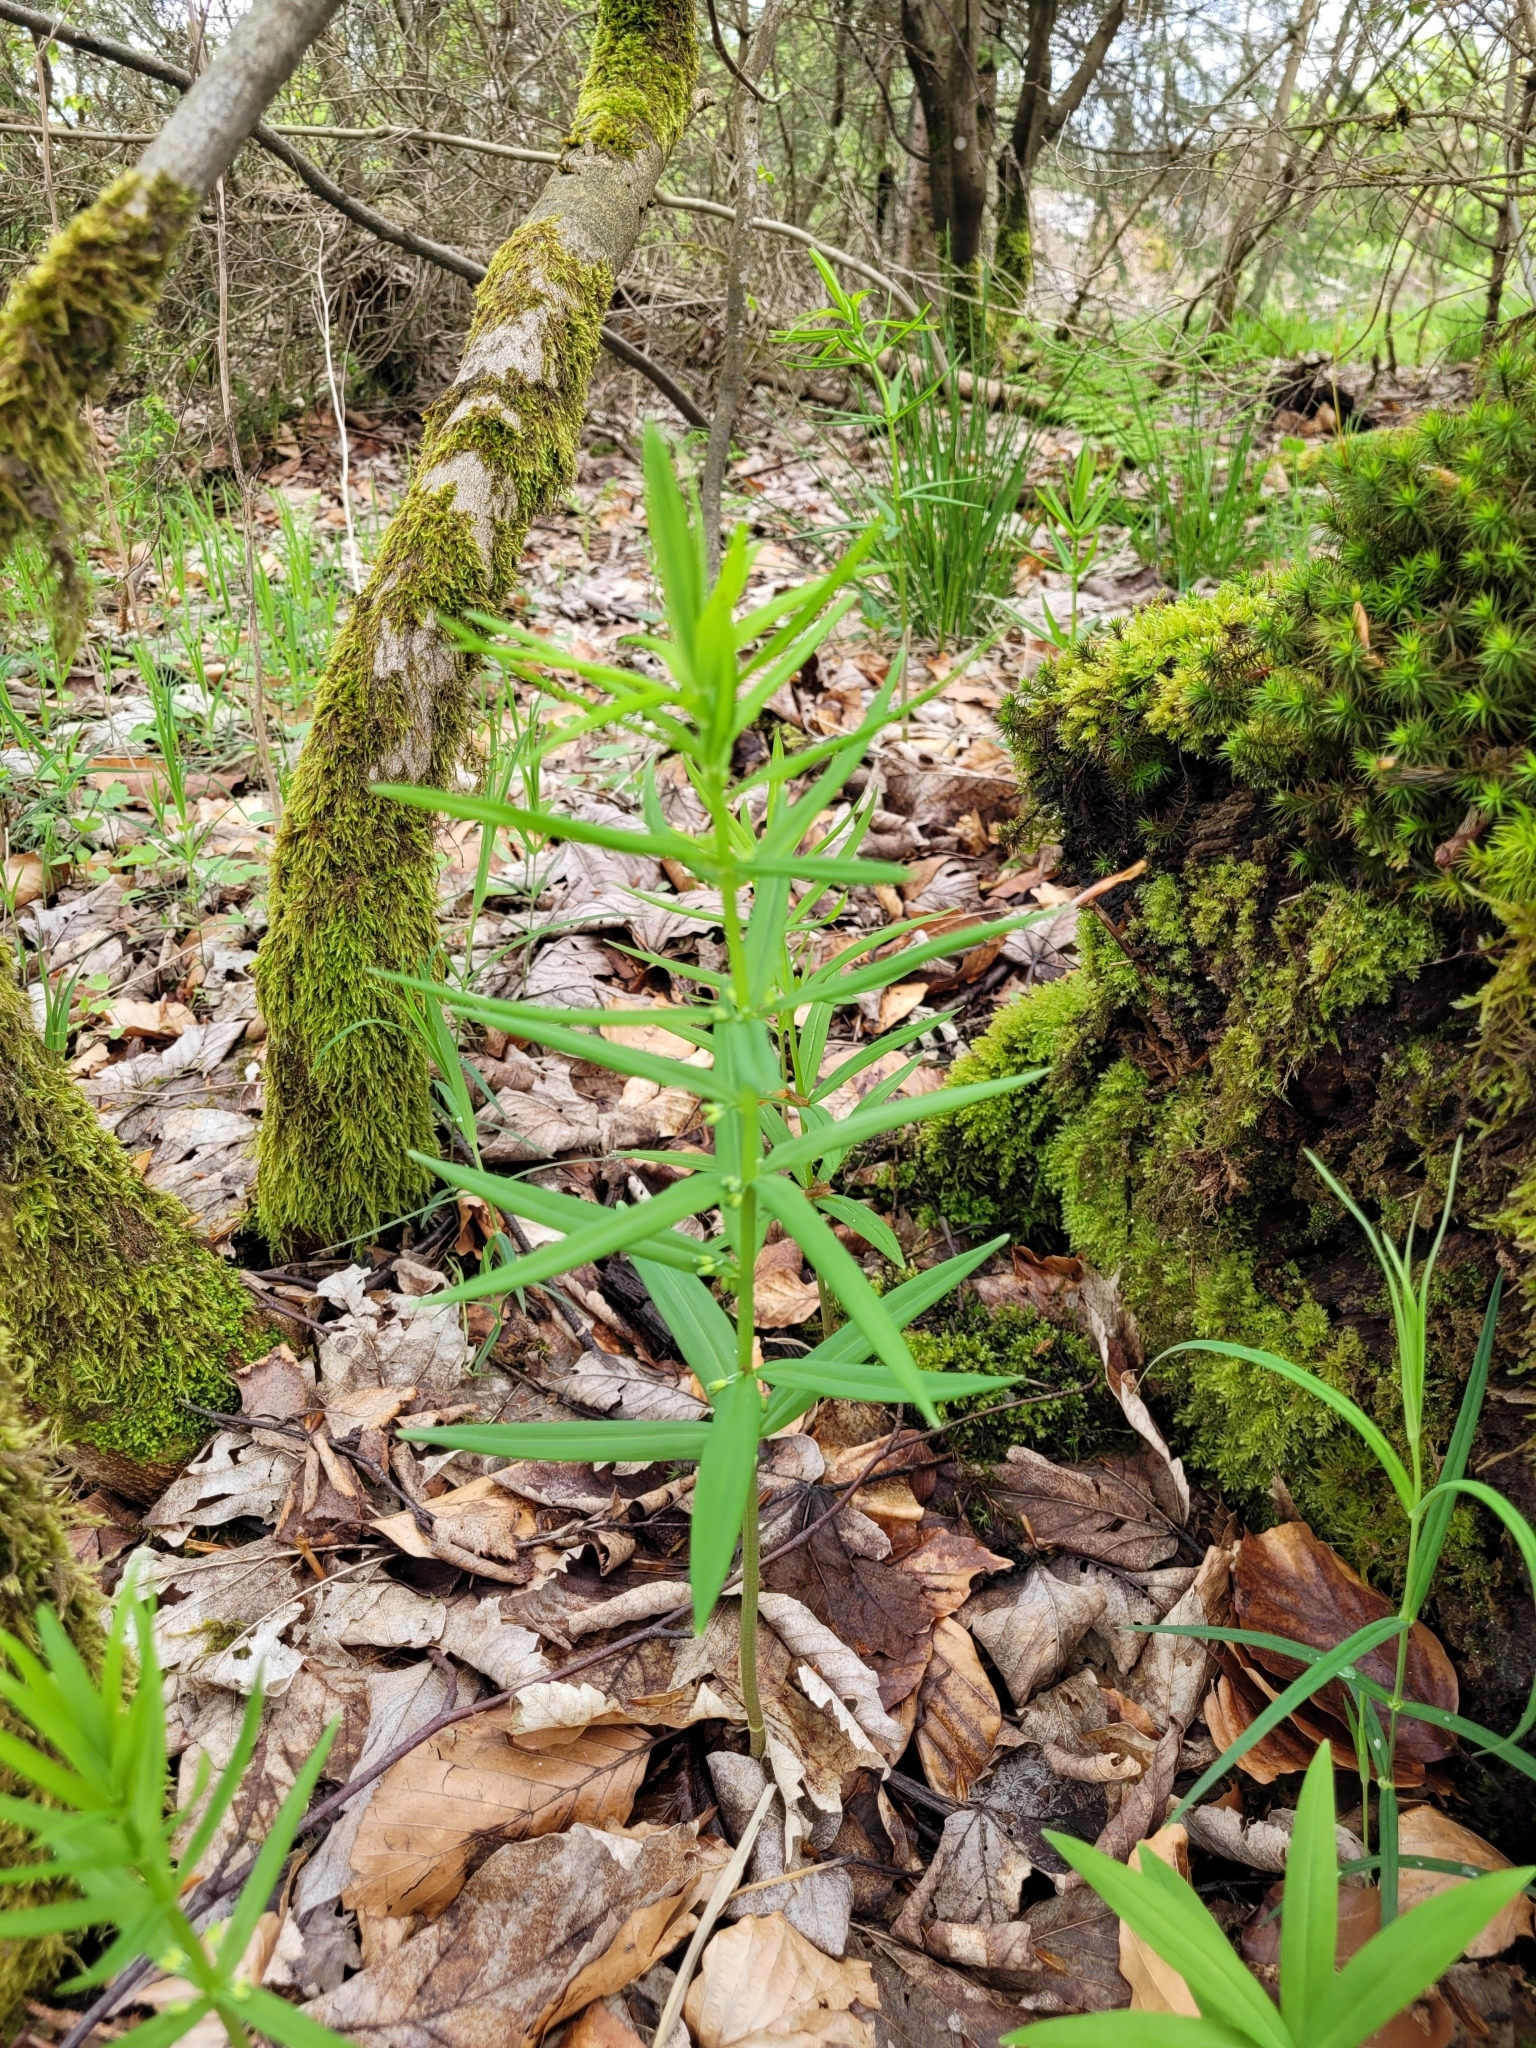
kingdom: Plantae
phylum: Tracheophyta
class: Liliopsida
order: Asparagales
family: Asparagaceae
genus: Polygonatum
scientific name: Polygonatum verticillatum
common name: Whorled solomon's-seal
